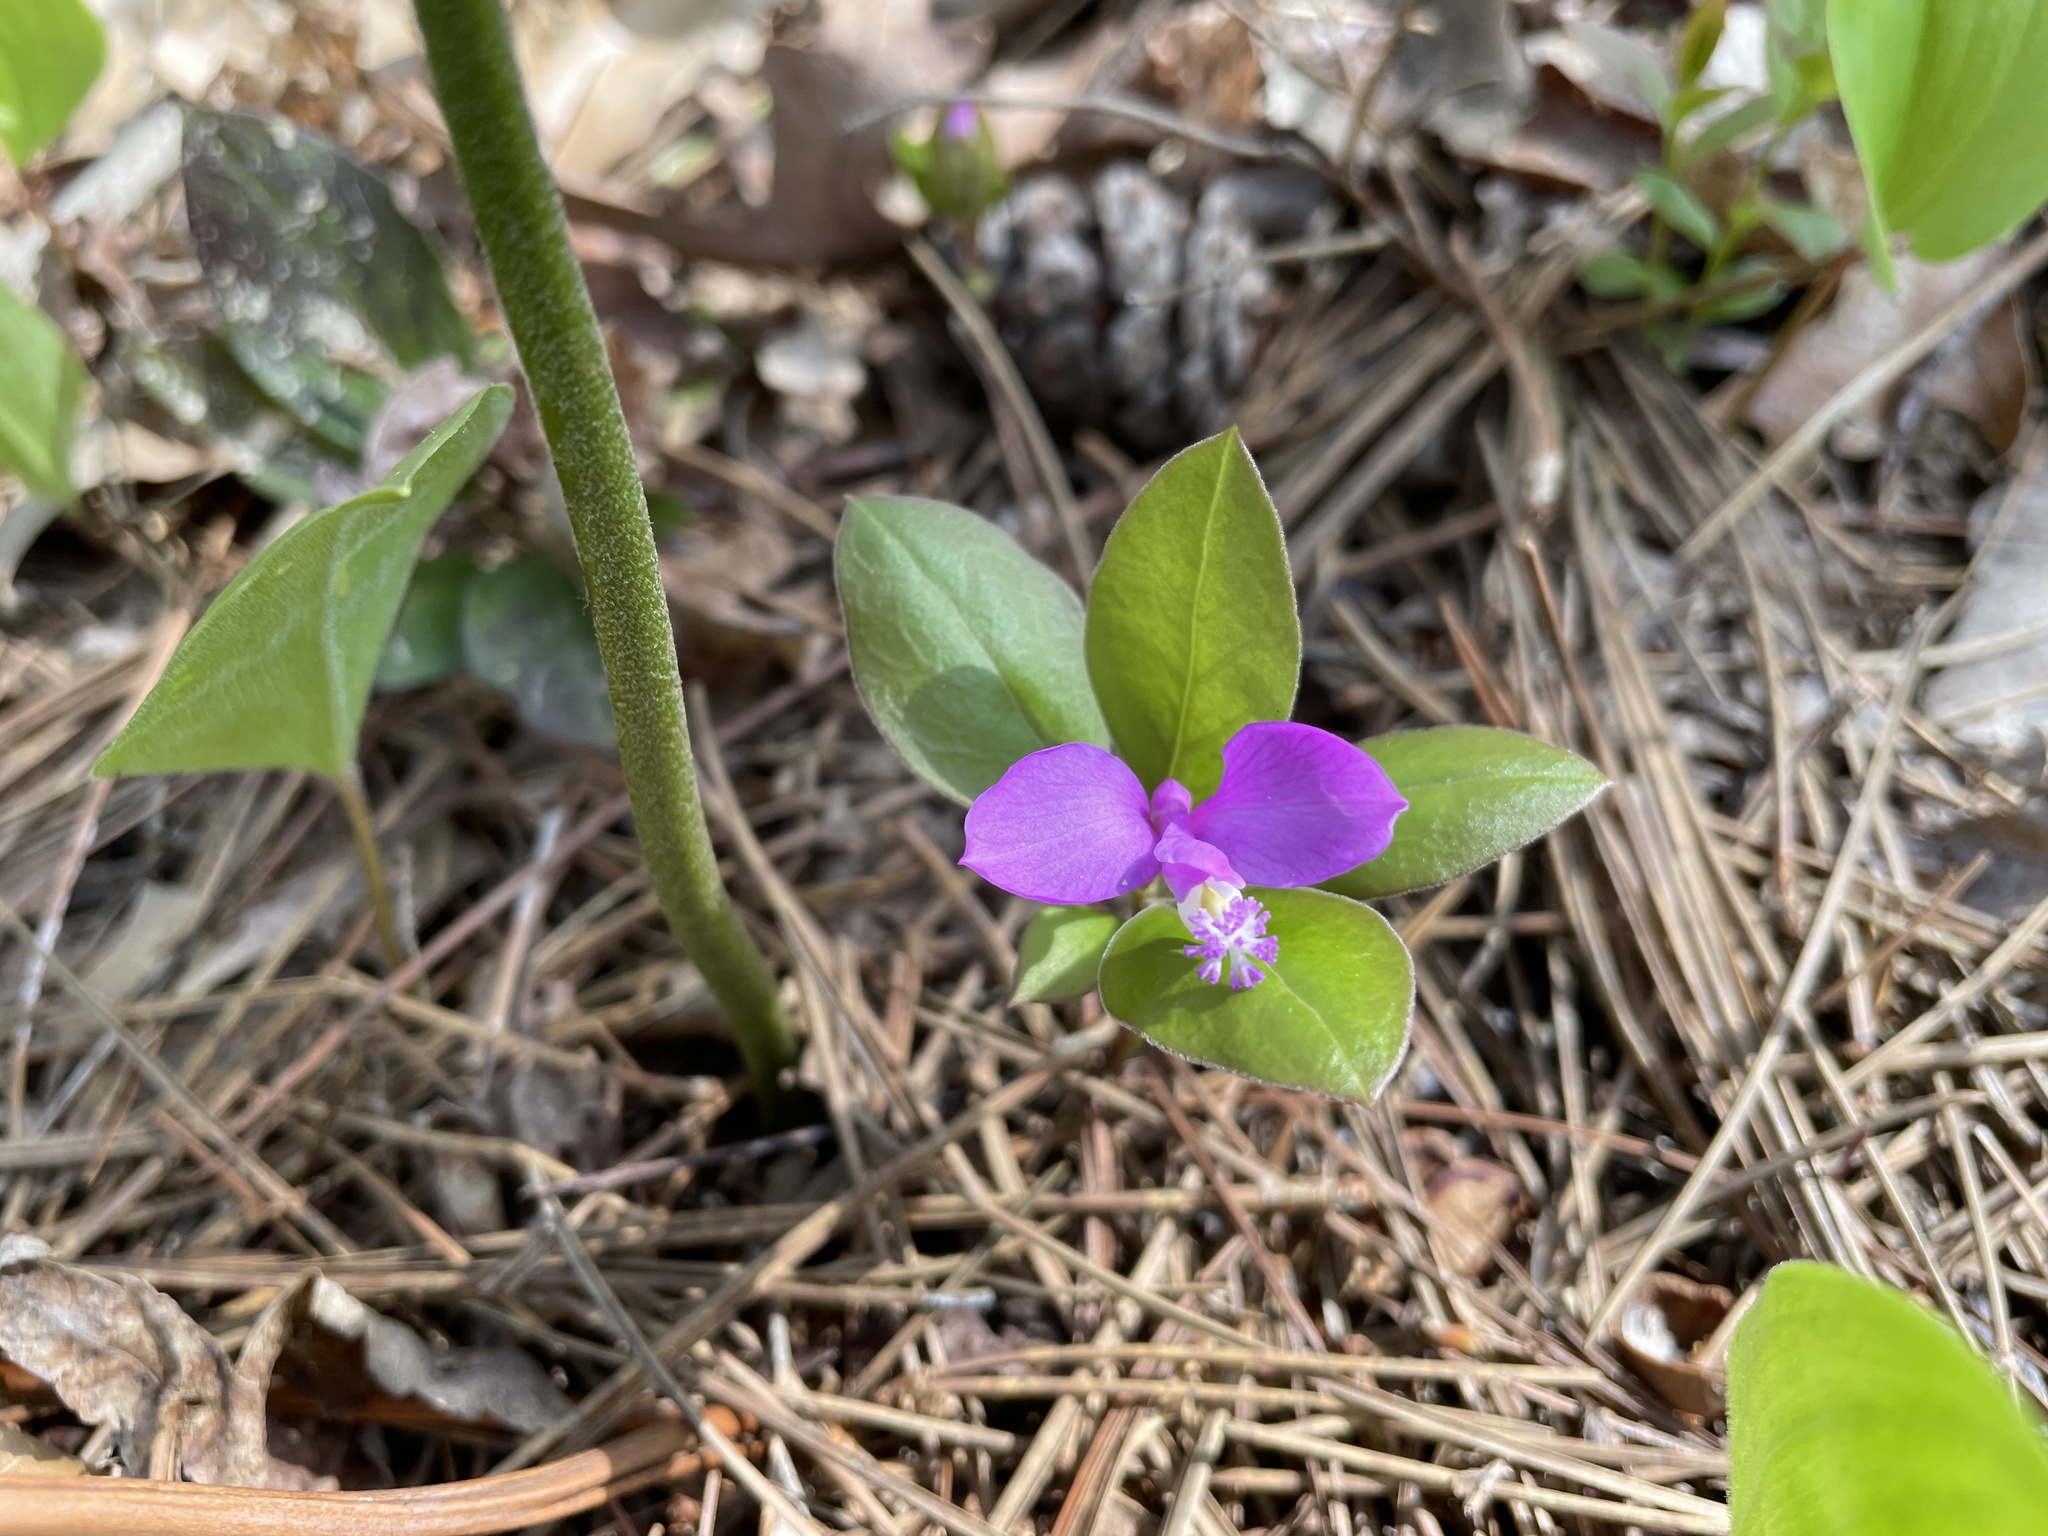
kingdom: Plantae
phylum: Tracheophyta
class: Magnoliopsida
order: Fabales
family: Polygalaceae
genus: Polygaloides
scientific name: Polygaloides paucifolia
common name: Bird-on-the-wing
